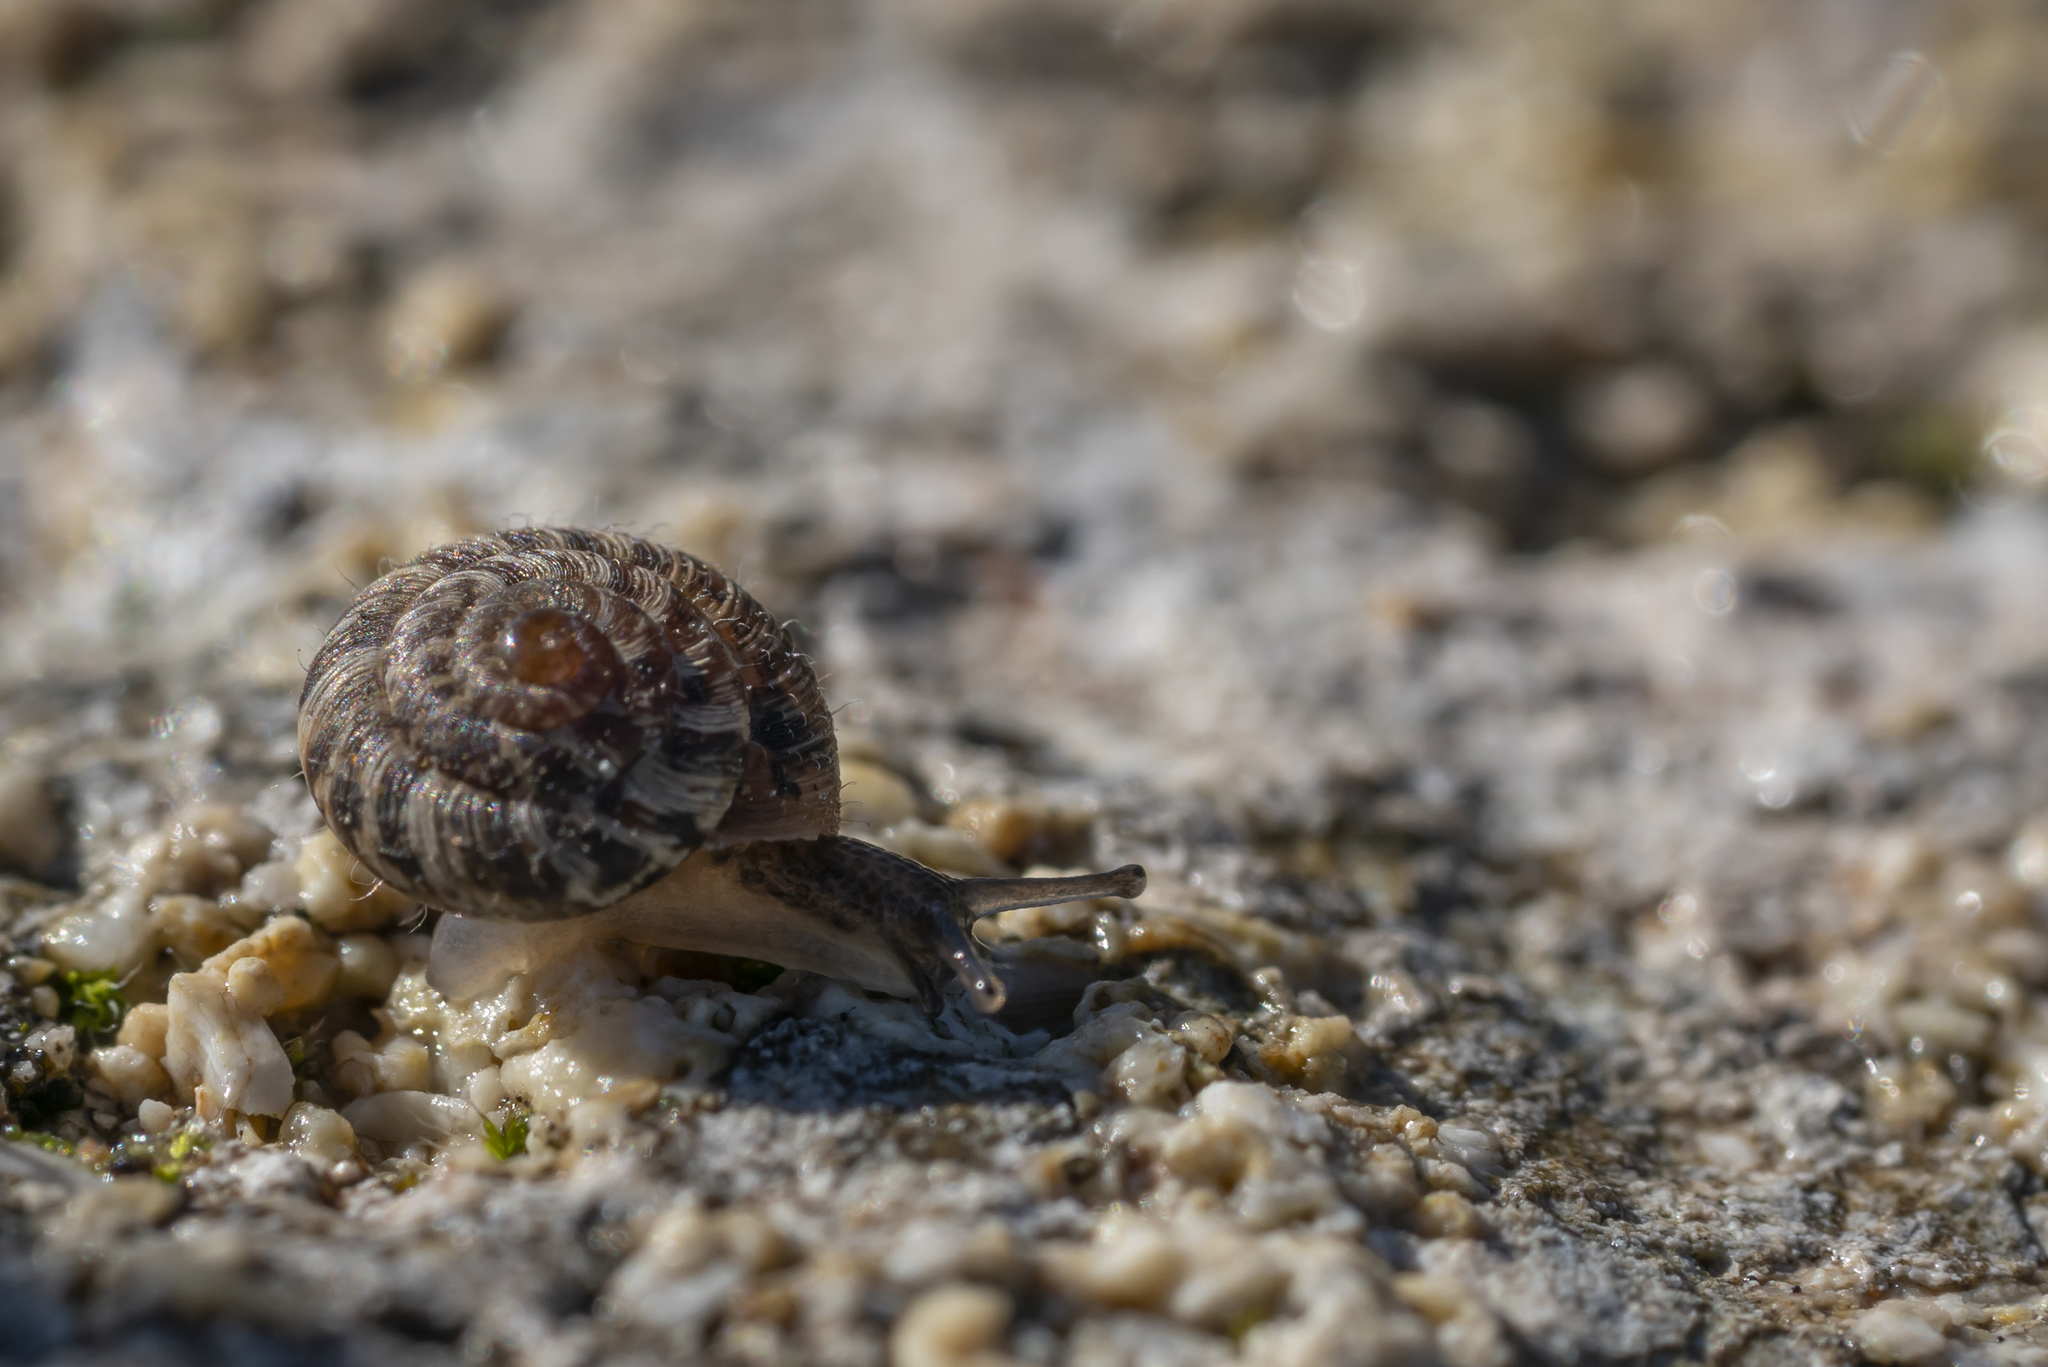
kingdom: Animalia
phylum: Mollusca
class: Gastropoda
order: Stylommatophora
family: Geomitridae
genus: Xerotricha
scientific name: Xerotricha conspurcata
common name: Snail
